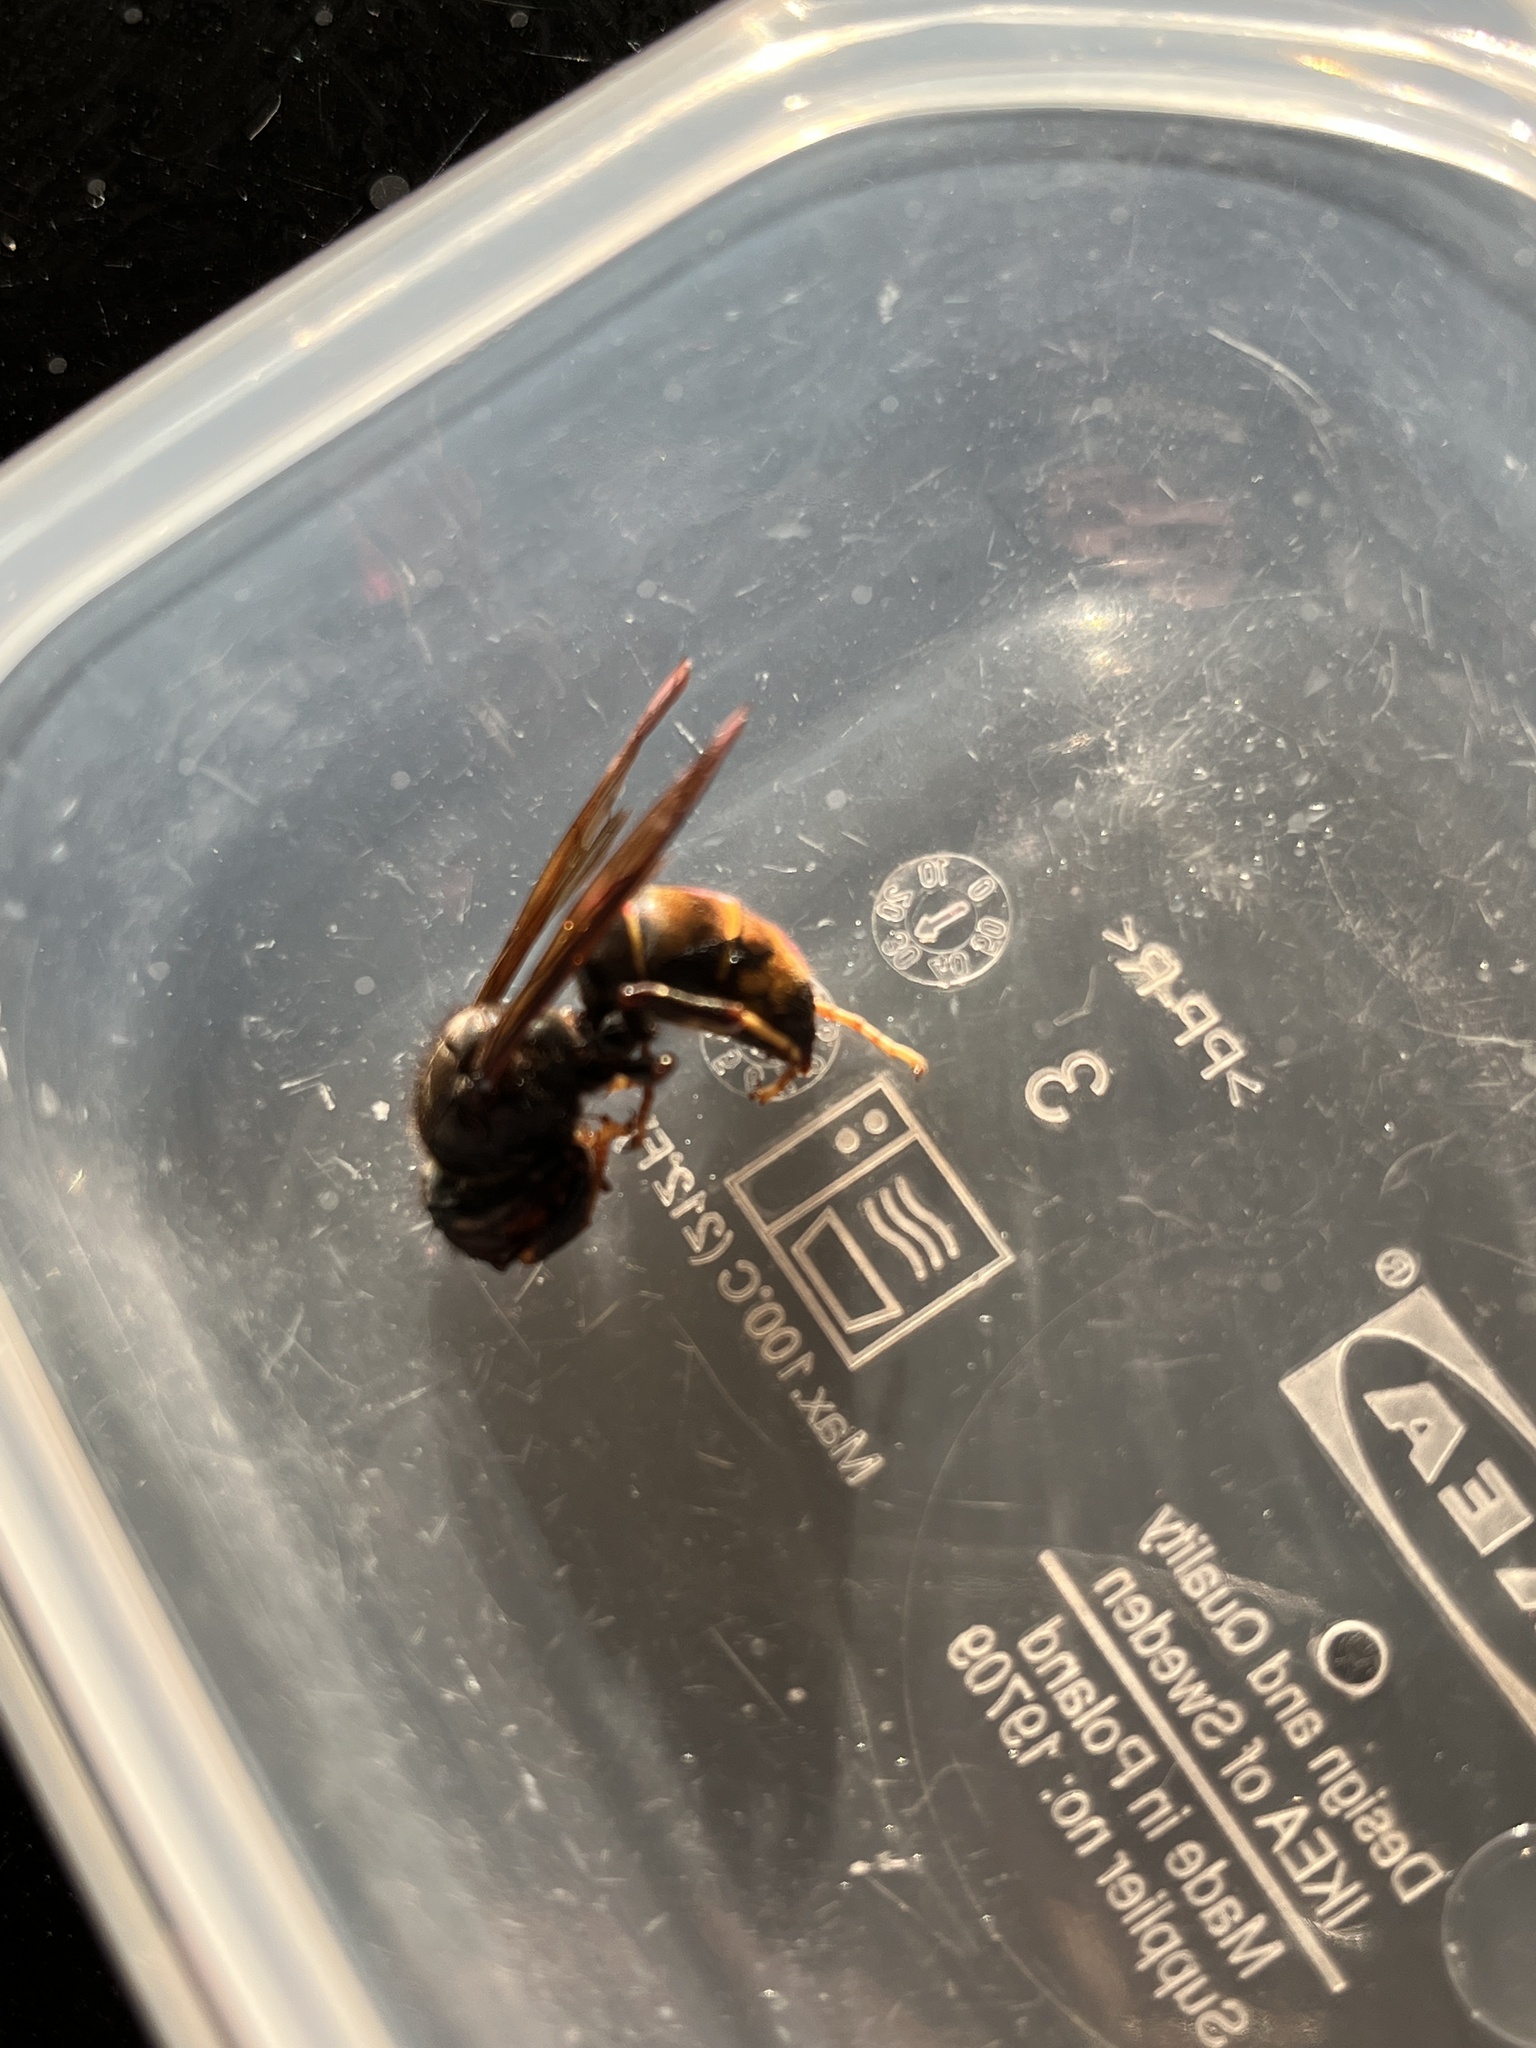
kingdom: Animalia
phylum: Arthropoda
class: Insecta
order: Hymenoptera
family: Vespidae
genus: Vespa
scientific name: Vespa velutina
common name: Asian hornet
